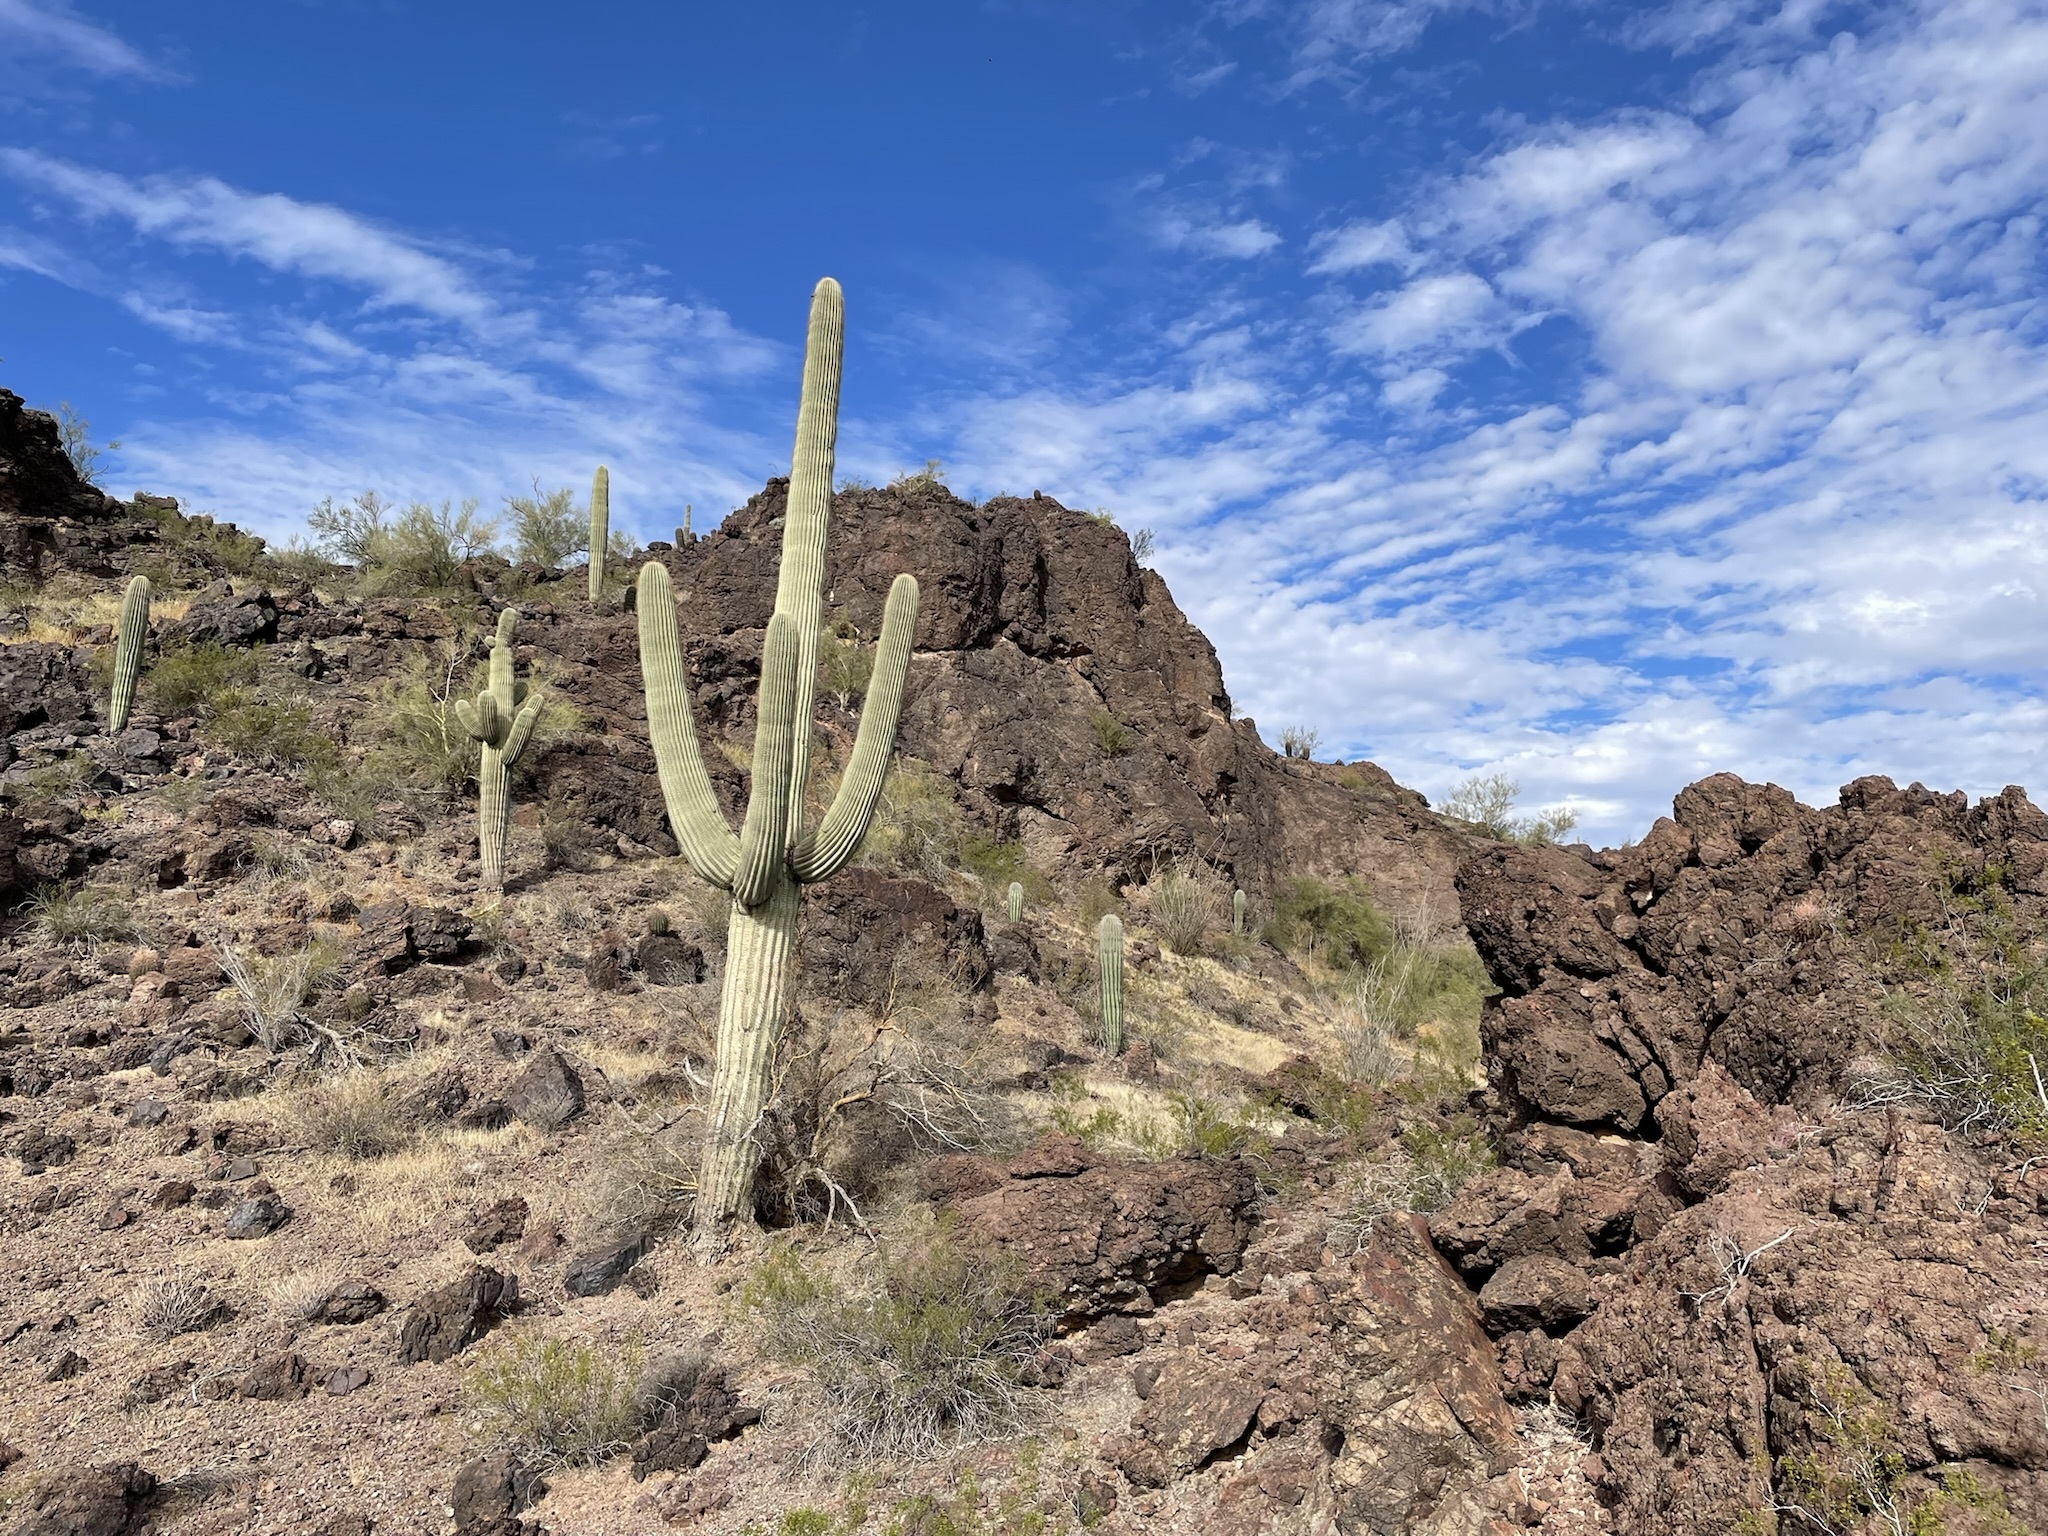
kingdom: Plantae
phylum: Tracheophyta
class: Magnoliopsida
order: Caryophyllales
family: Cactaceae
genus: Carnegiea
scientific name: Carnegiea gigantea
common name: Saguaro
